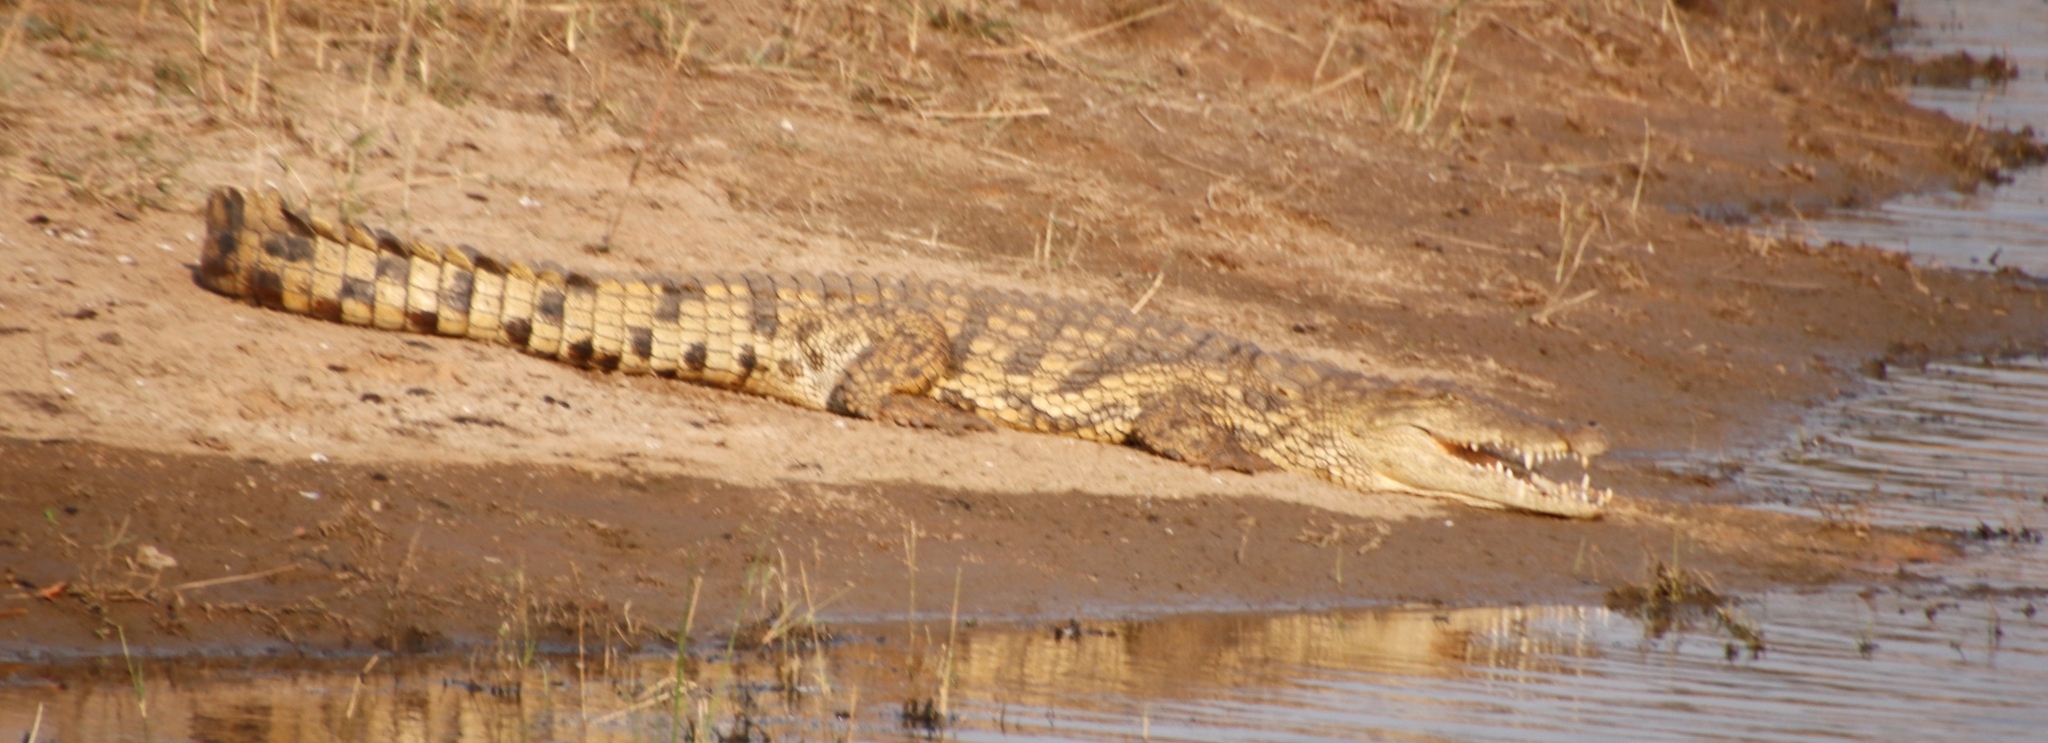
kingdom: Animalia
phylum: Chordata
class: Crocodylia
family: Crocodylidae
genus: Crocodylus
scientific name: Crocodylus niloticus
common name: Nile crocodile
